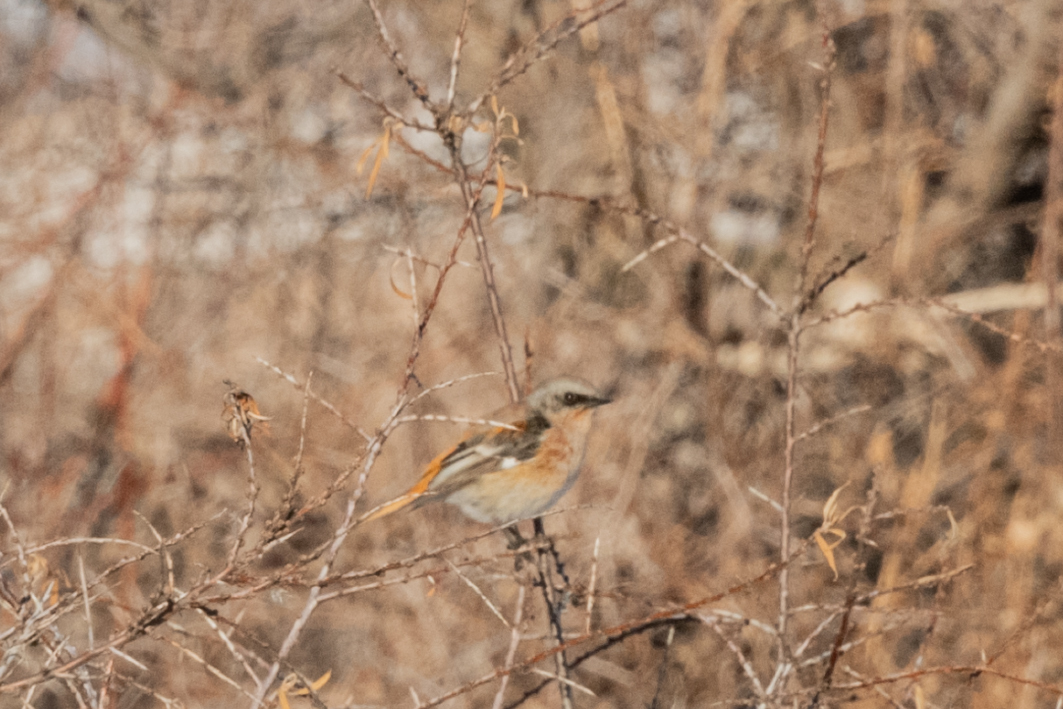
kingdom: Animalia
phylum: Chordata
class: Aves
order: Passeriformes
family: Muscicapidae
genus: Phoenicurus
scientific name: Phoenicurus erythronotus
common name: Eversmann's redstart
